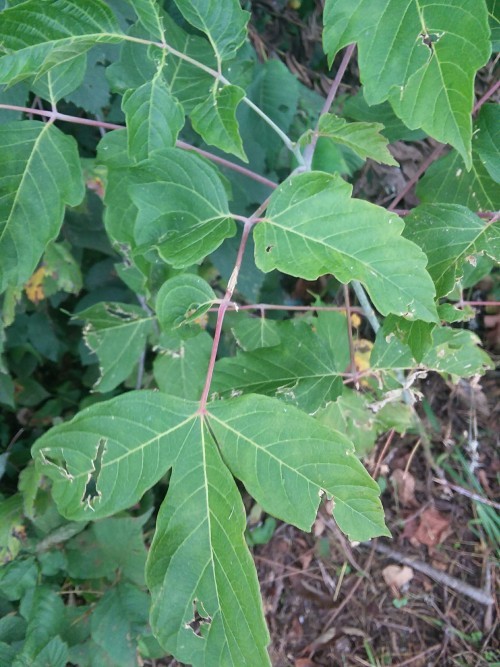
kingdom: Plantae
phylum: Tracheophyta
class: Magnoliopsida
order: Sapindales
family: Sapindaceae
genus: Acer
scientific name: Acer negundo
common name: Ashleaf maple
